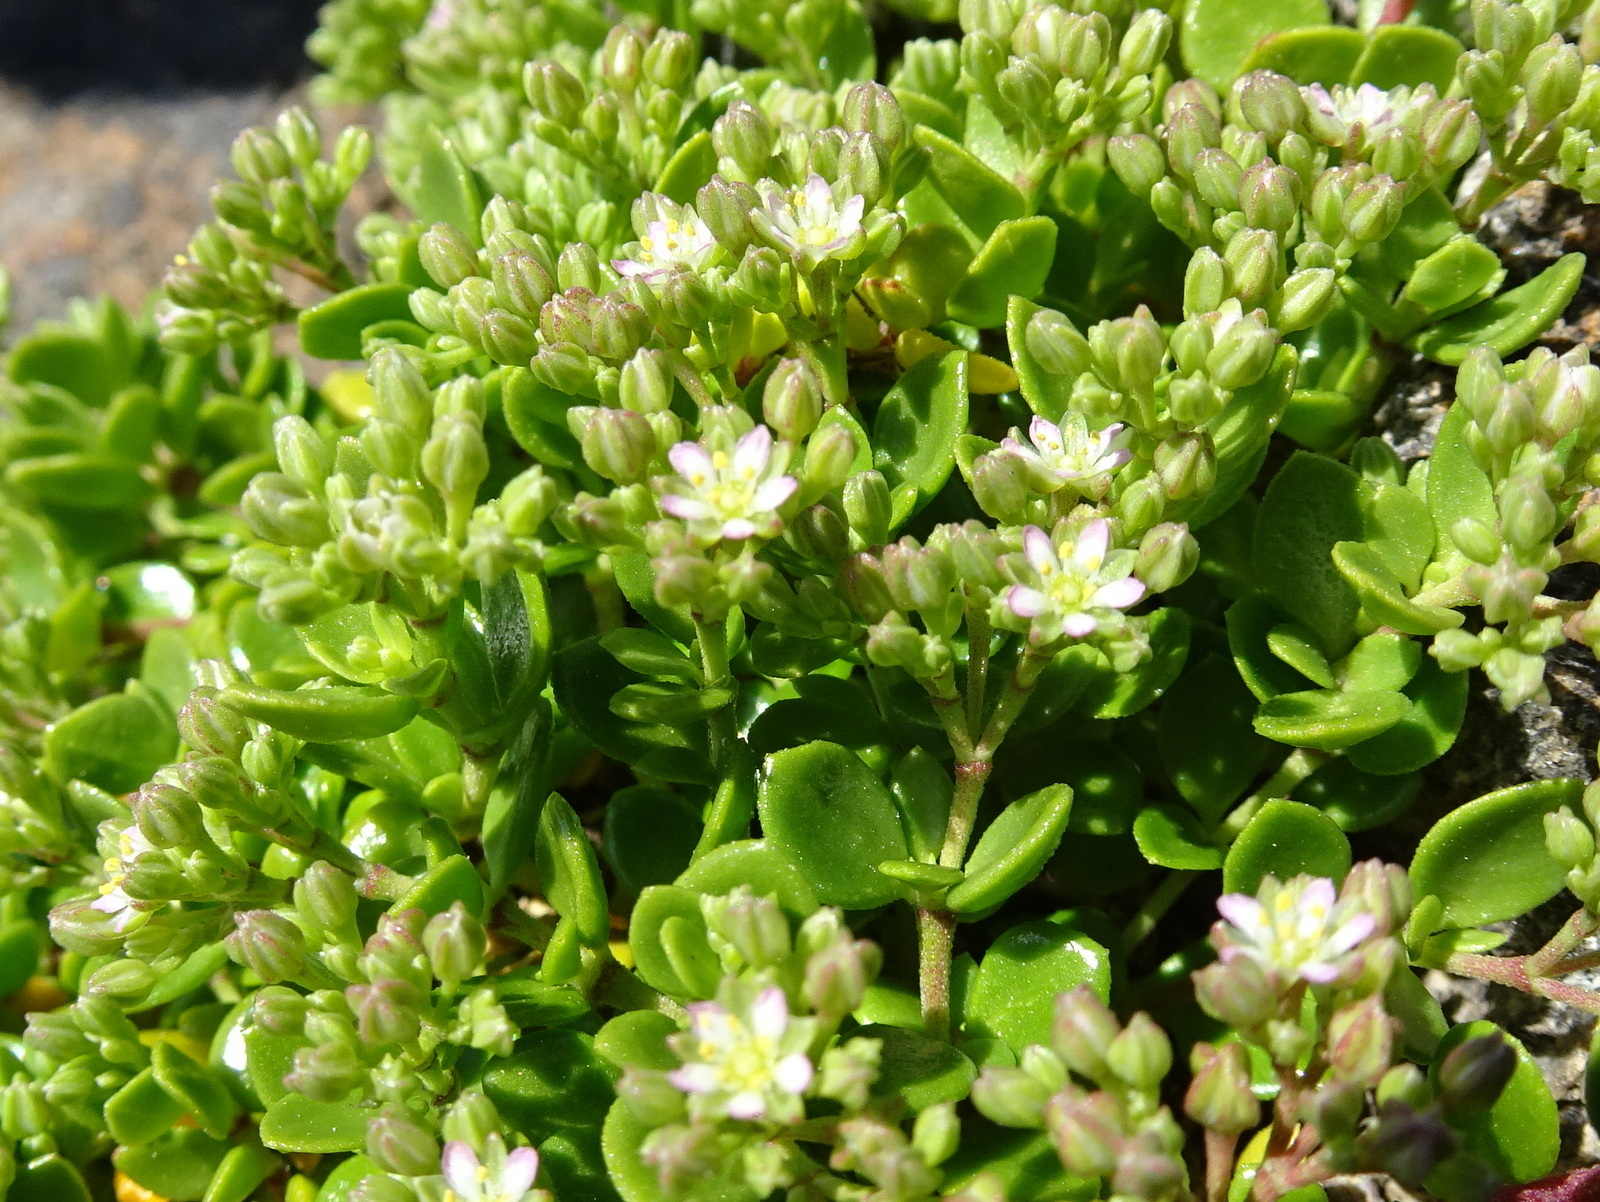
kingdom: Plantae
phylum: Tracheophyta
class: Magnoliopsida
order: Caryophyllales
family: Caryophyllaceae
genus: Polycarpon
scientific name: Polycarpon polycarpoides
